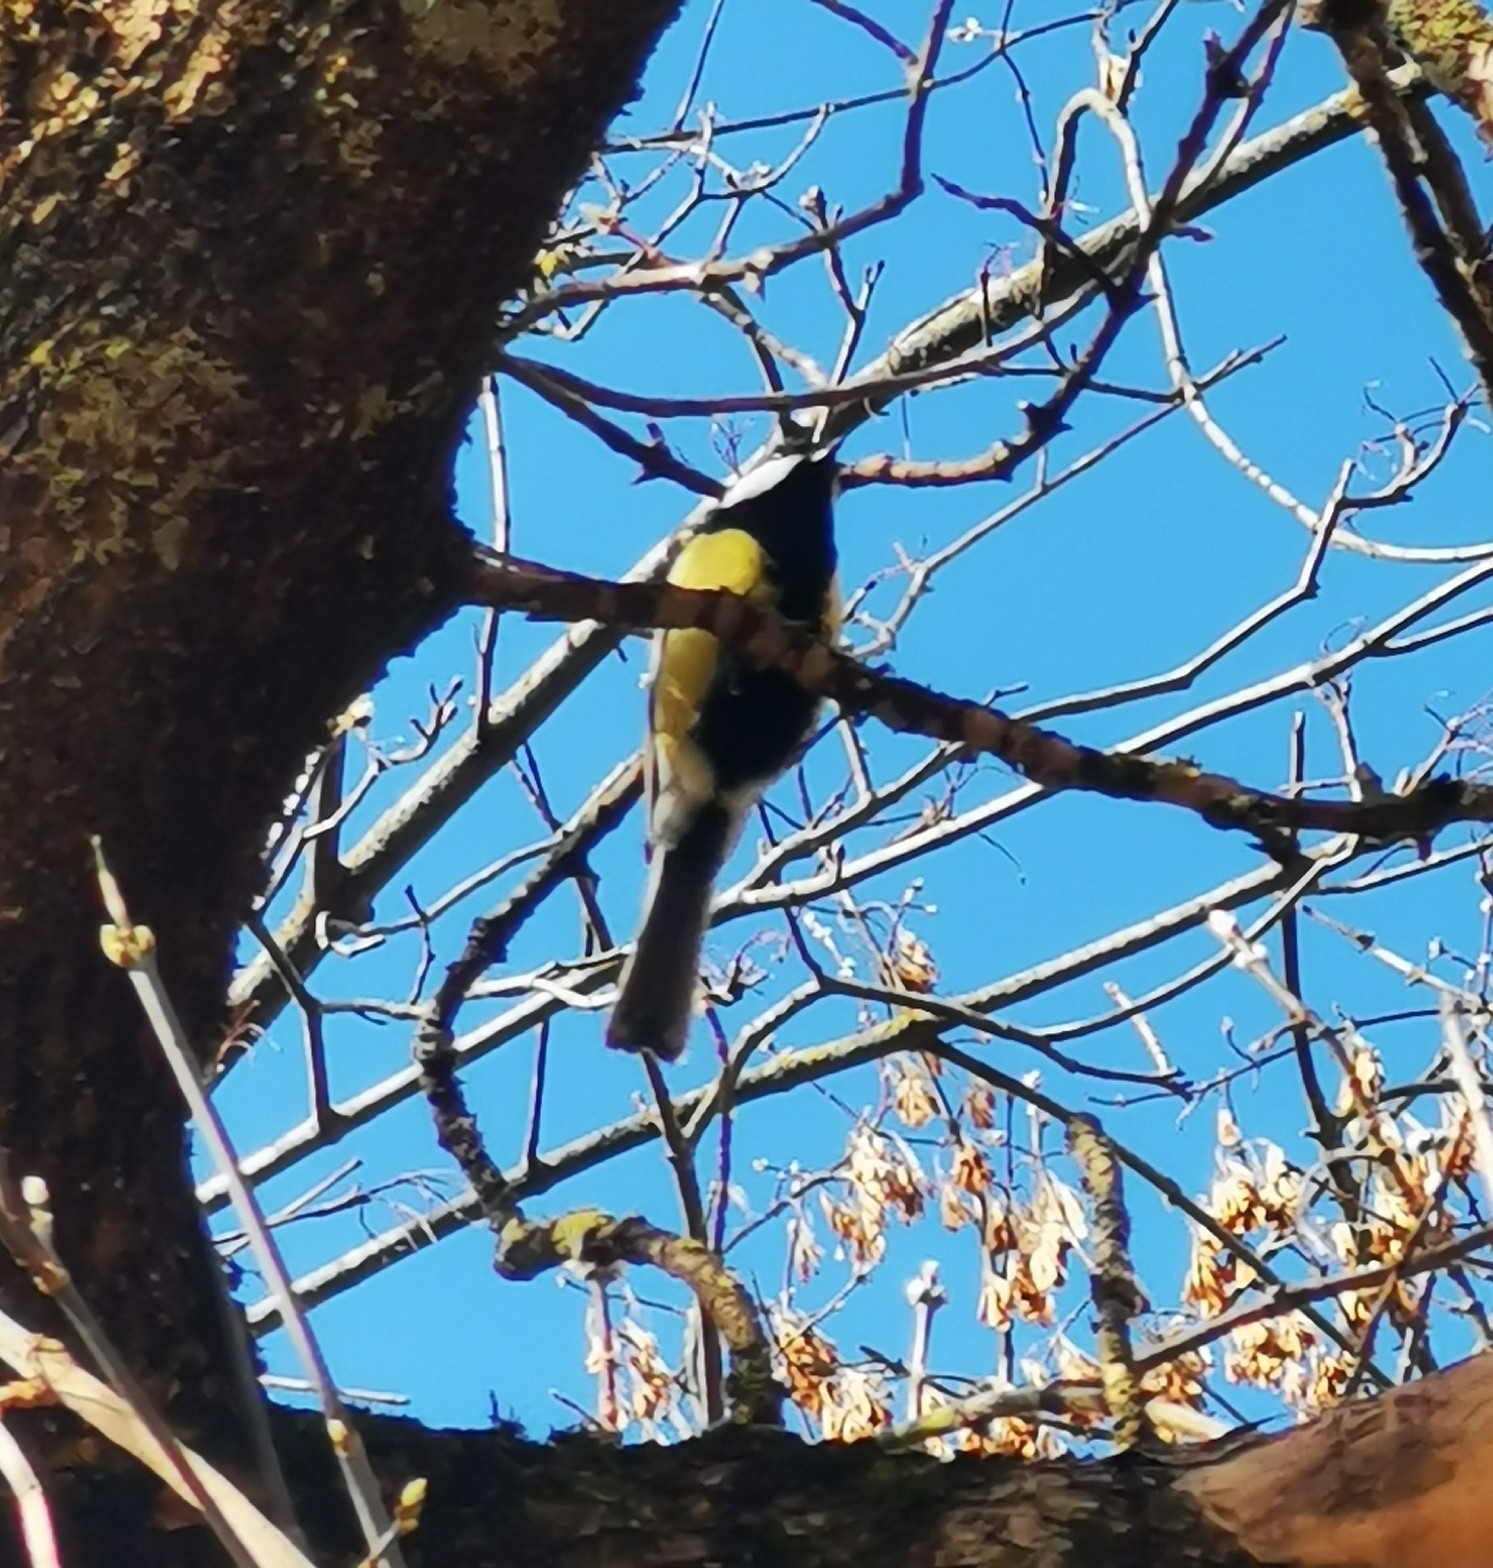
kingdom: Animalia
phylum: Chordata
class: Aves
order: Passeriformes
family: Paridae
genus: Parus
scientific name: Parus major
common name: Great tit
